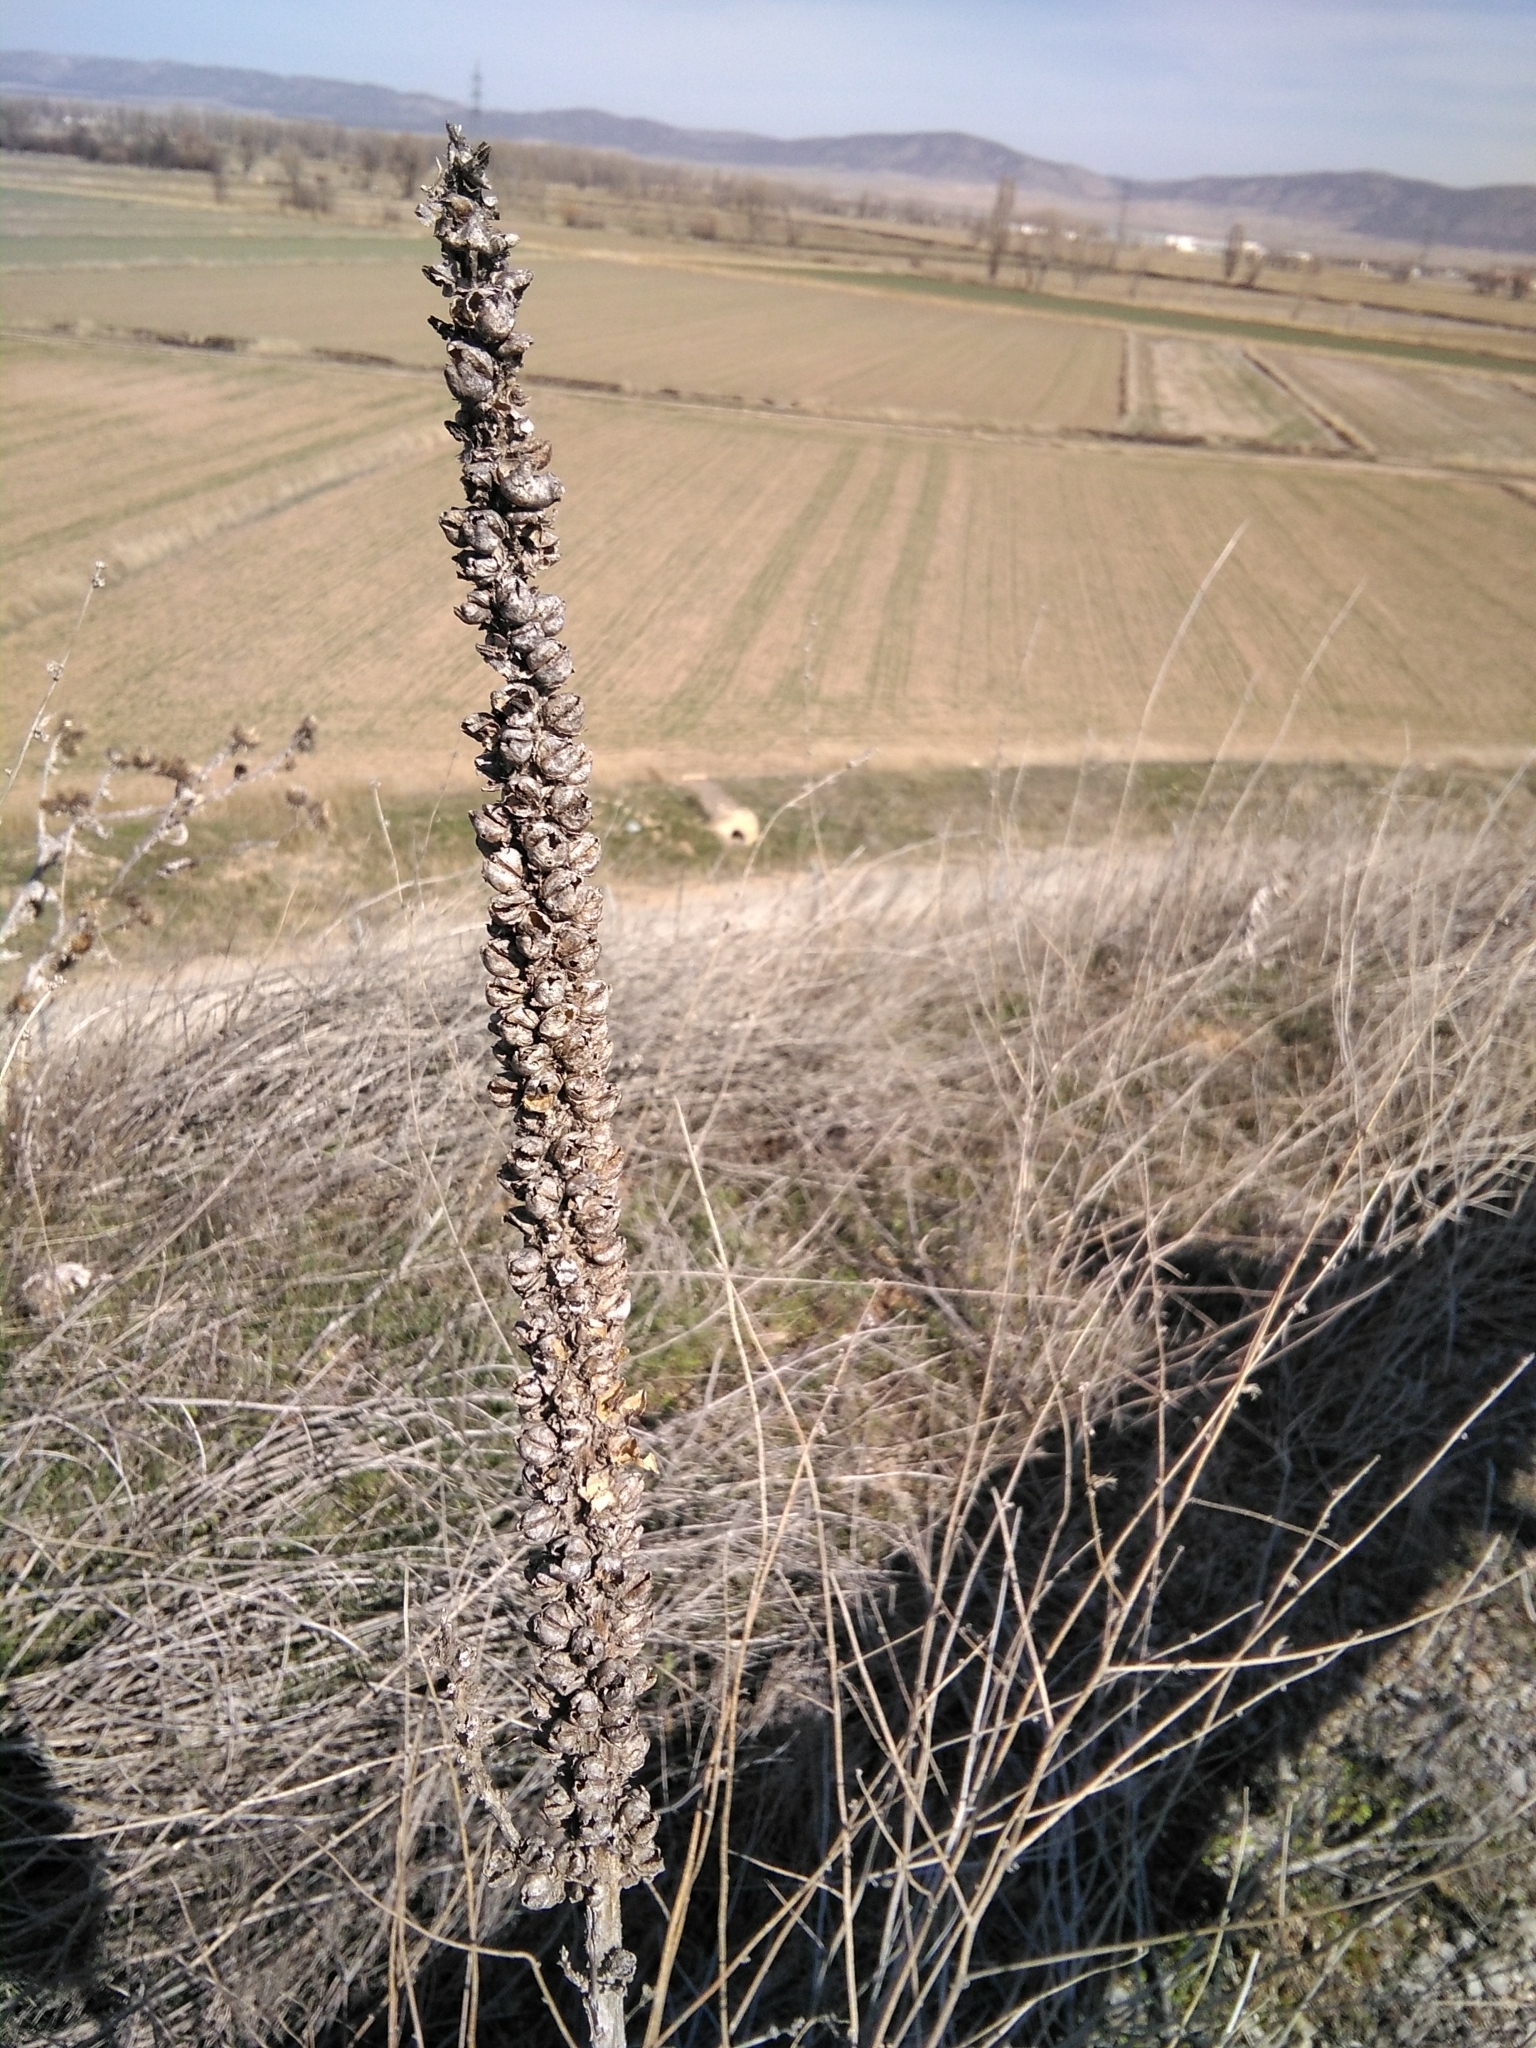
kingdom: Plantae
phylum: Tracheophyta
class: Magnoliopsida
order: Lamiales
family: Scrophulariaceae
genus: Verbascum
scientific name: Verbascum thapsus
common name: Common mullein
